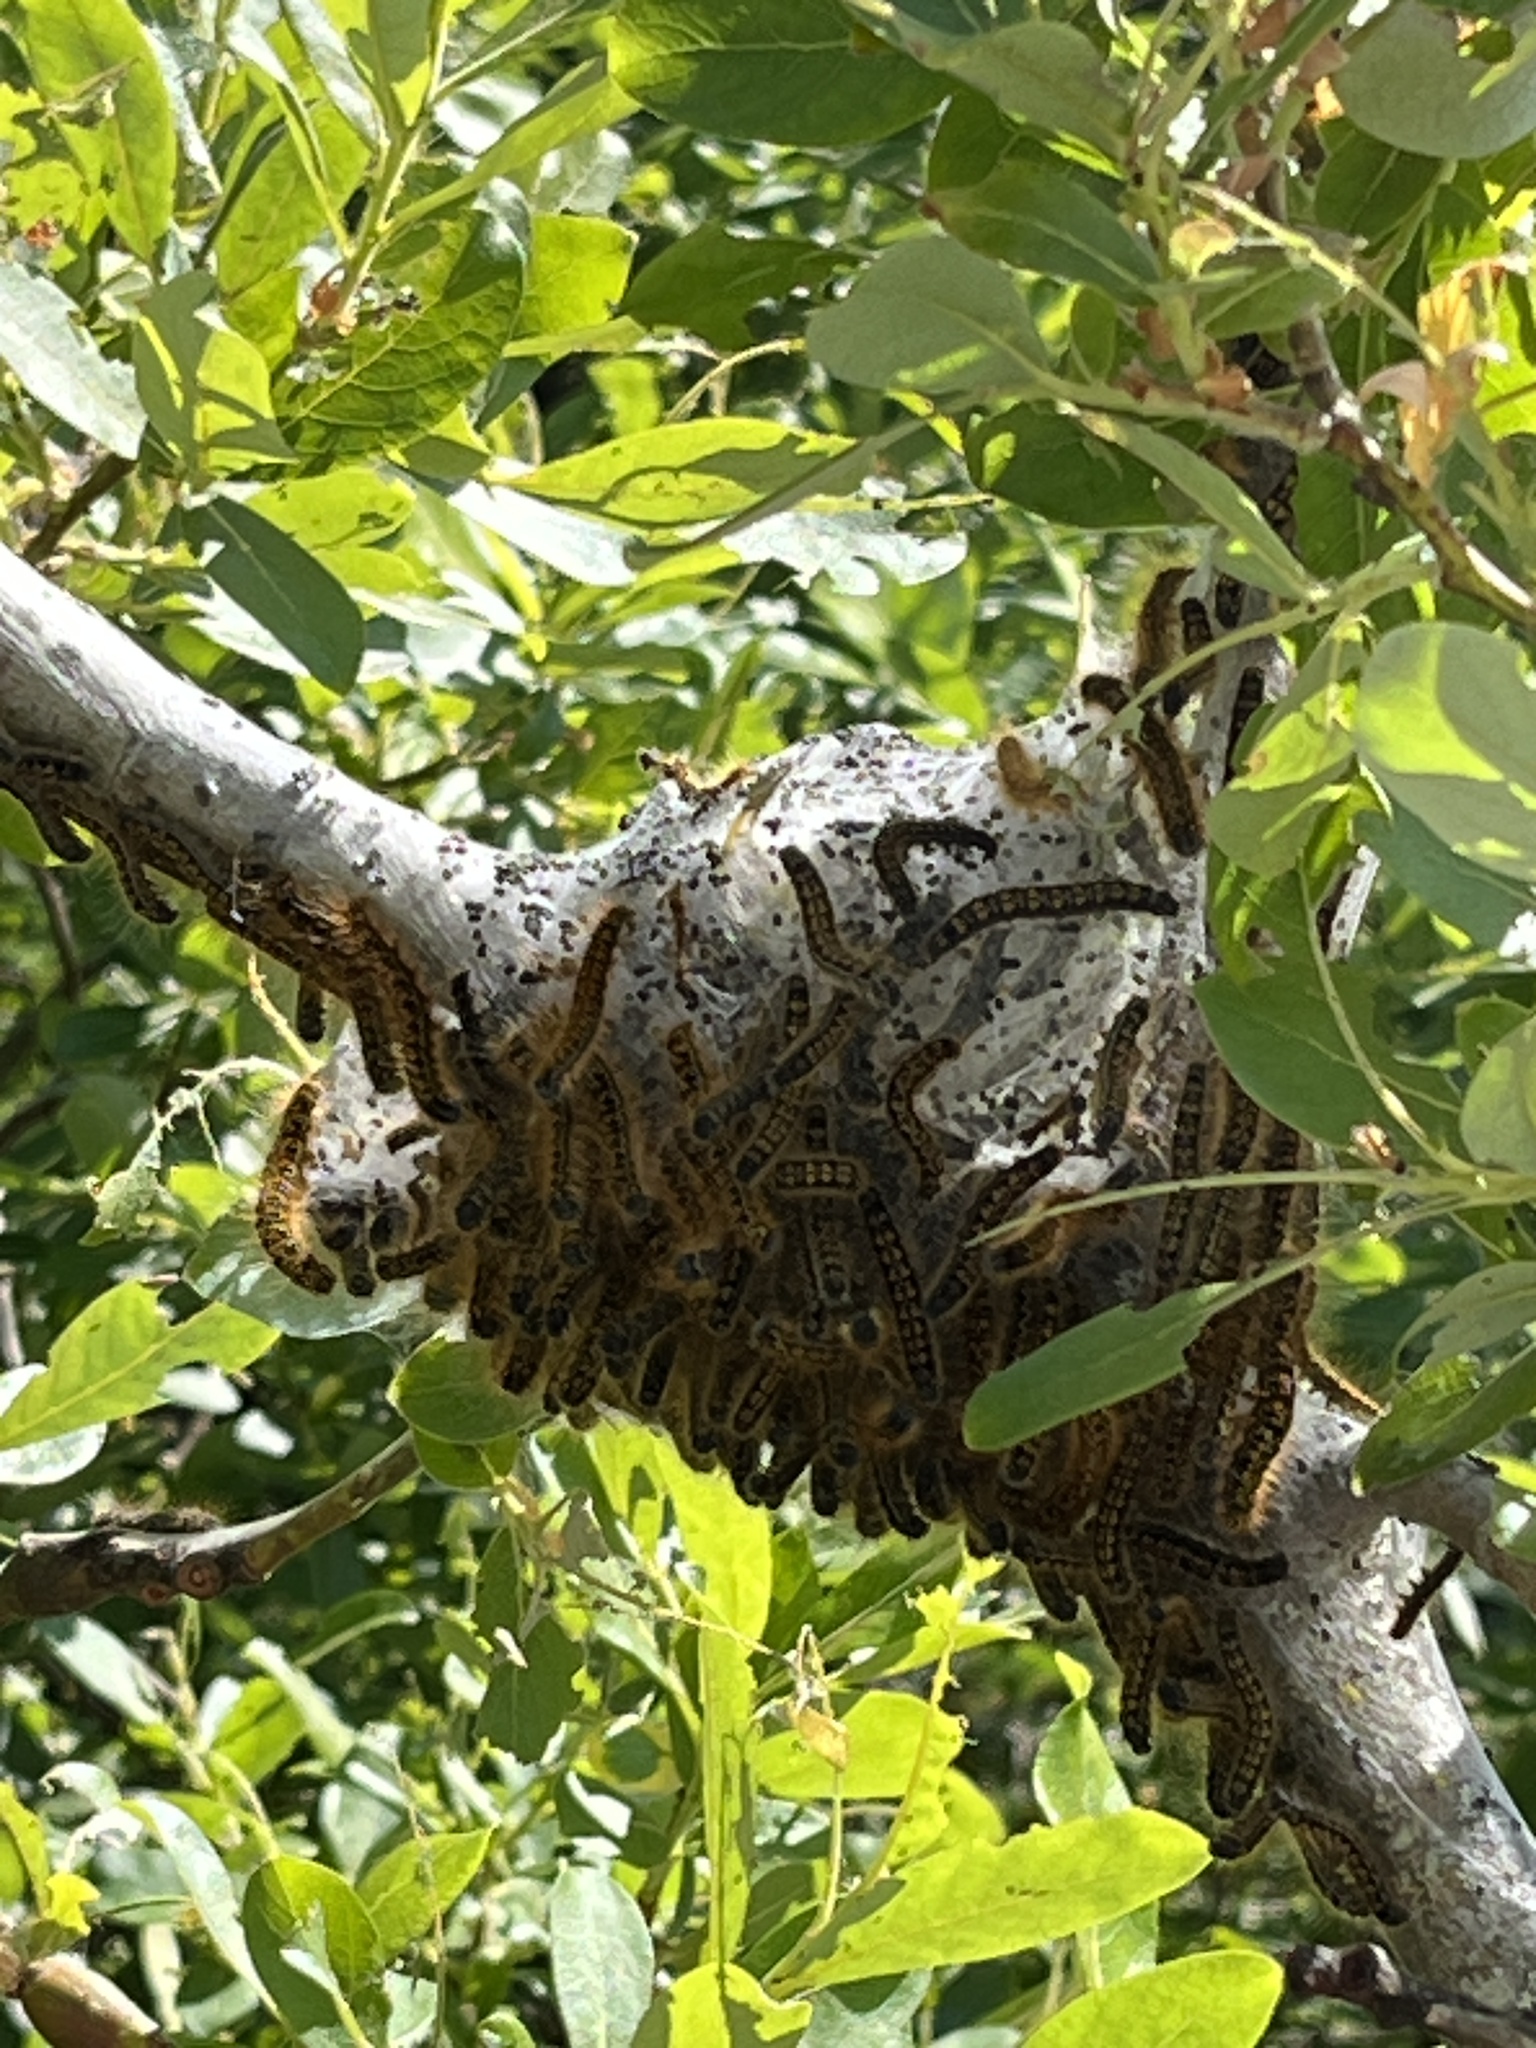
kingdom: Animalia
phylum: Arthropoda
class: Insecta
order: Lepidoptera
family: Lasiocampidae
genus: Malacosoma
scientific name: Malacosoma californica
